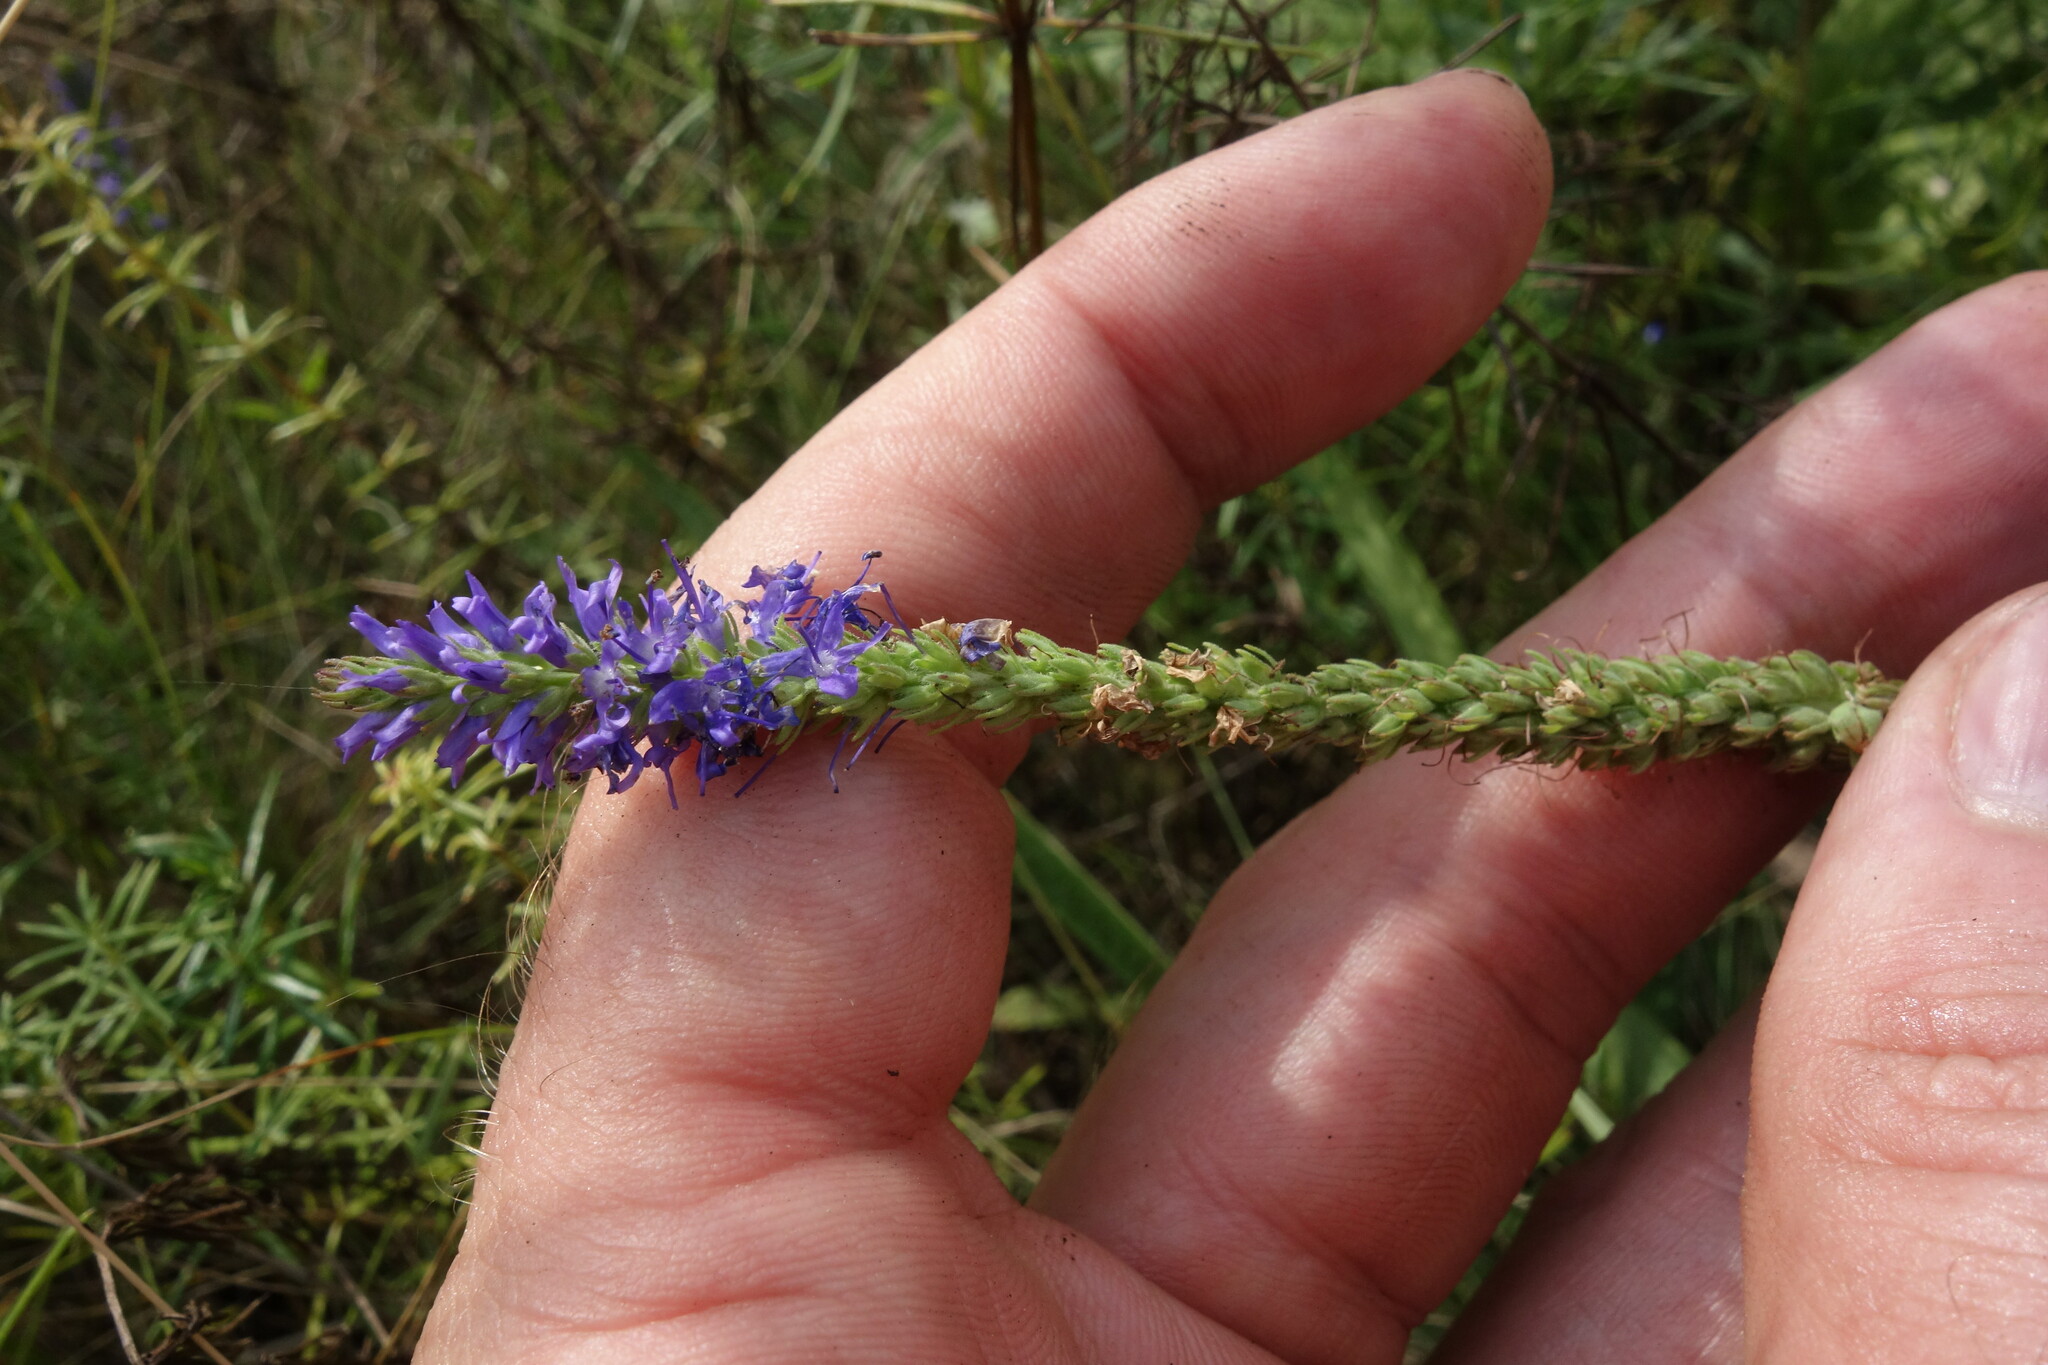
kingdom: Plantae
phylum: Tracheophyta
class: Magnoliopsida
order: Lamiales
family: Plantaginaceae
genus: Veronica
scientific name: Veronica spicata
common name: Spiked speedwell
